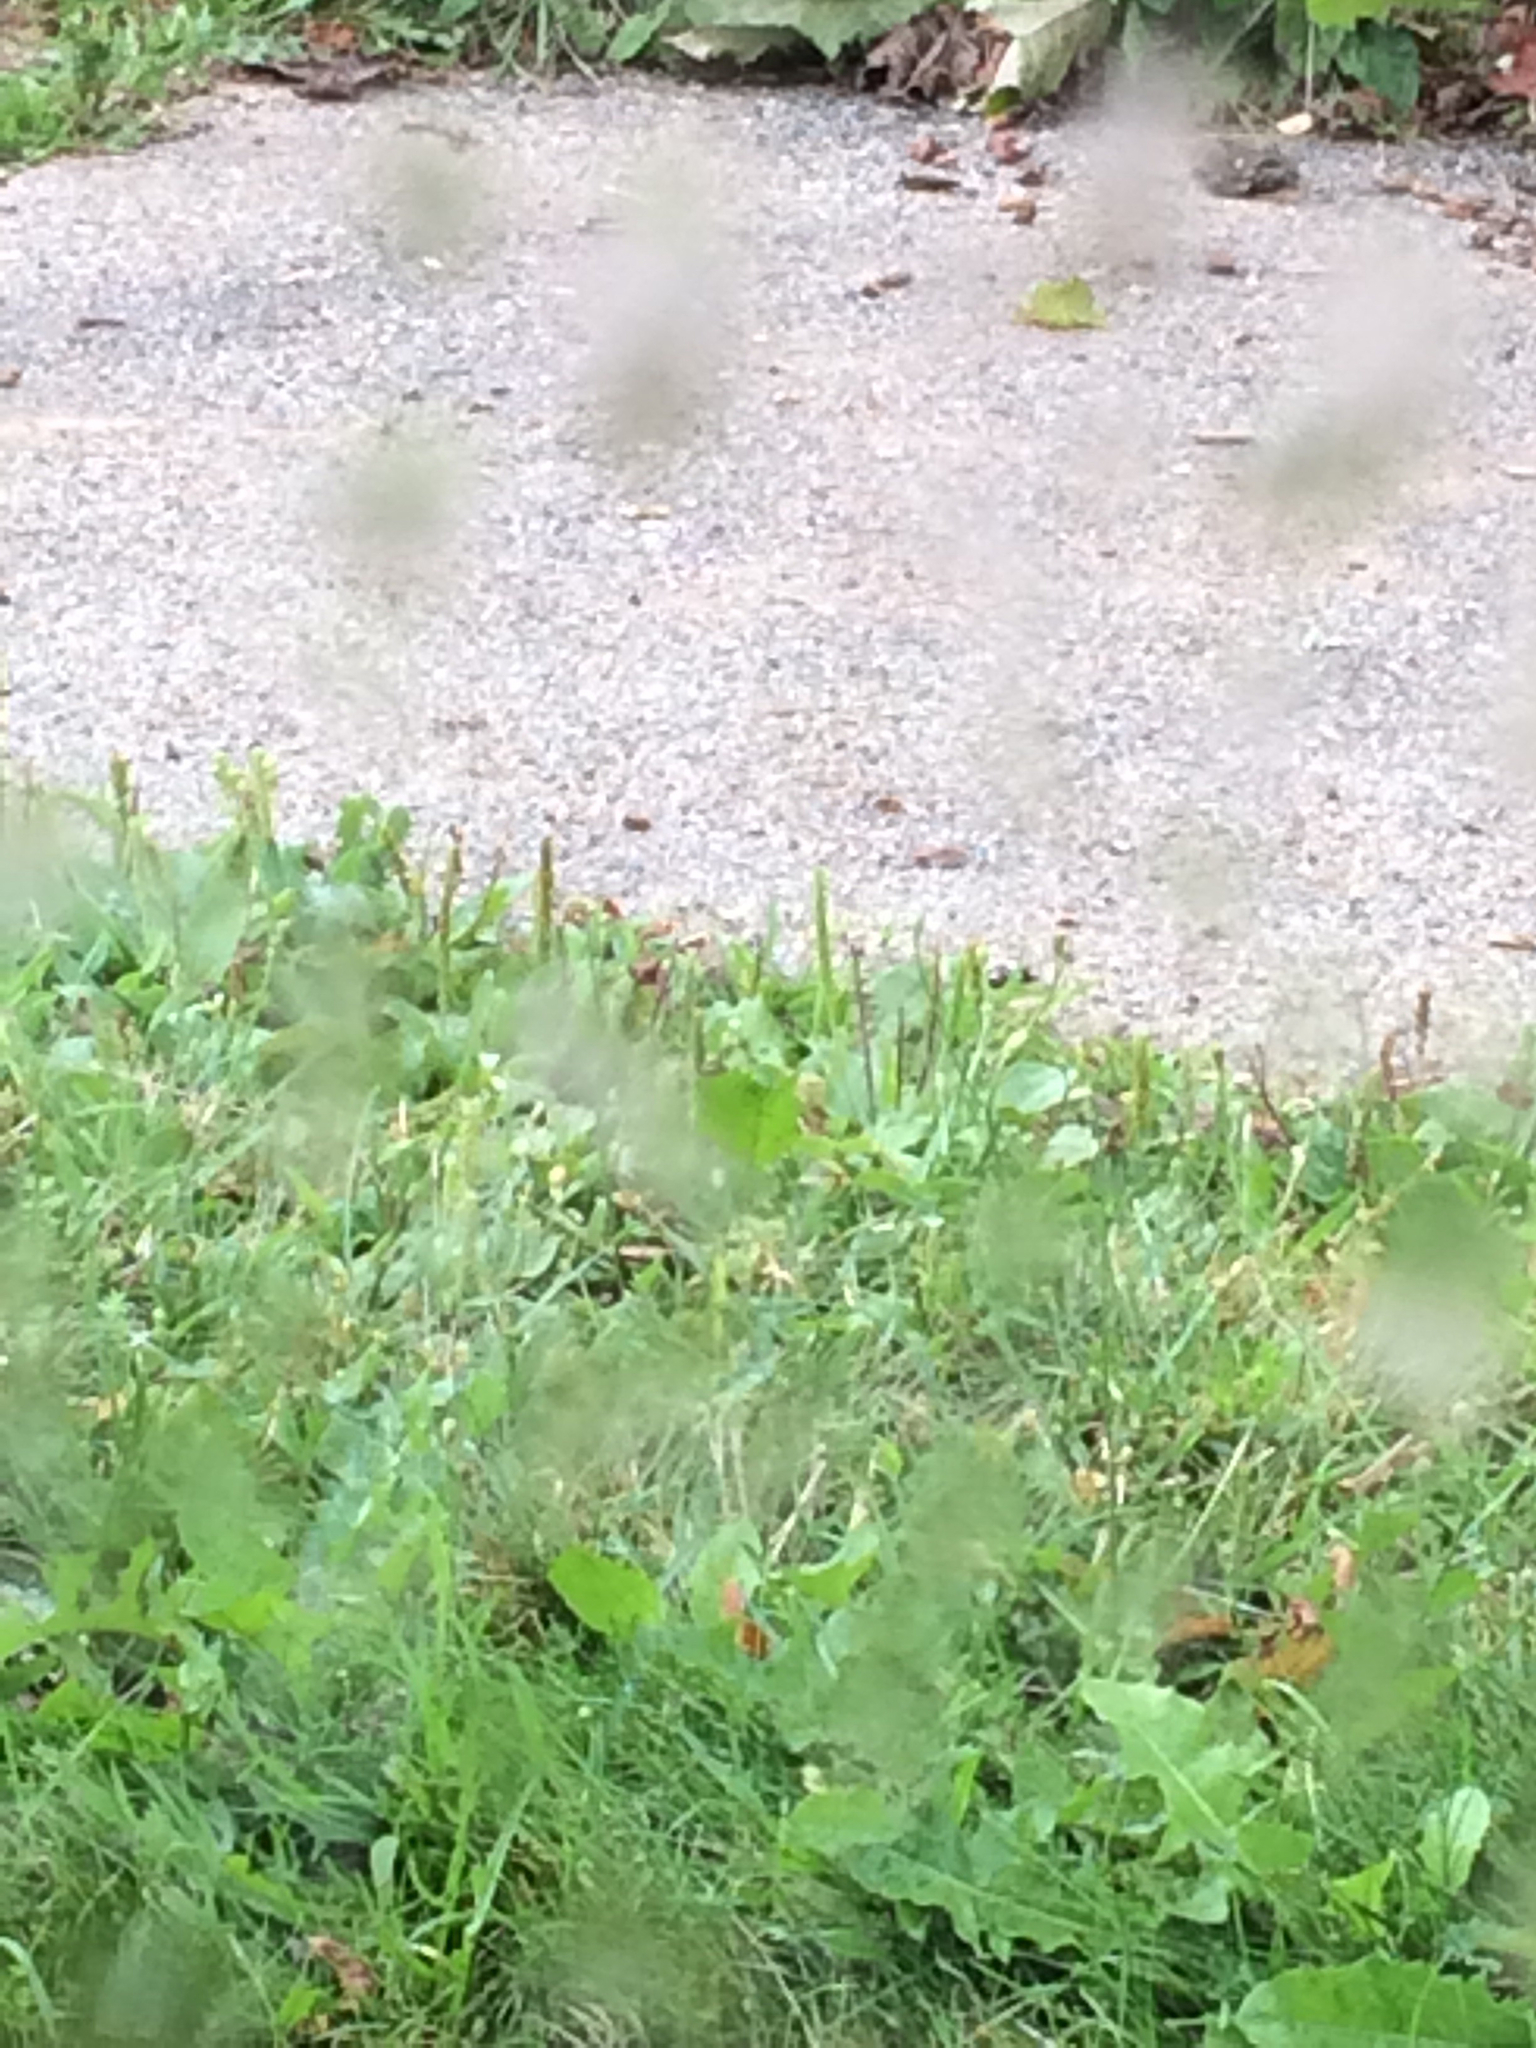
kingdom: Plantae
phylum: Tracheophyta
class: Magnoliopsida
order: Lamiales
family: Plantaginaceae
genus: Plantago
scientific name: Plantago major
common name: Common plantain
